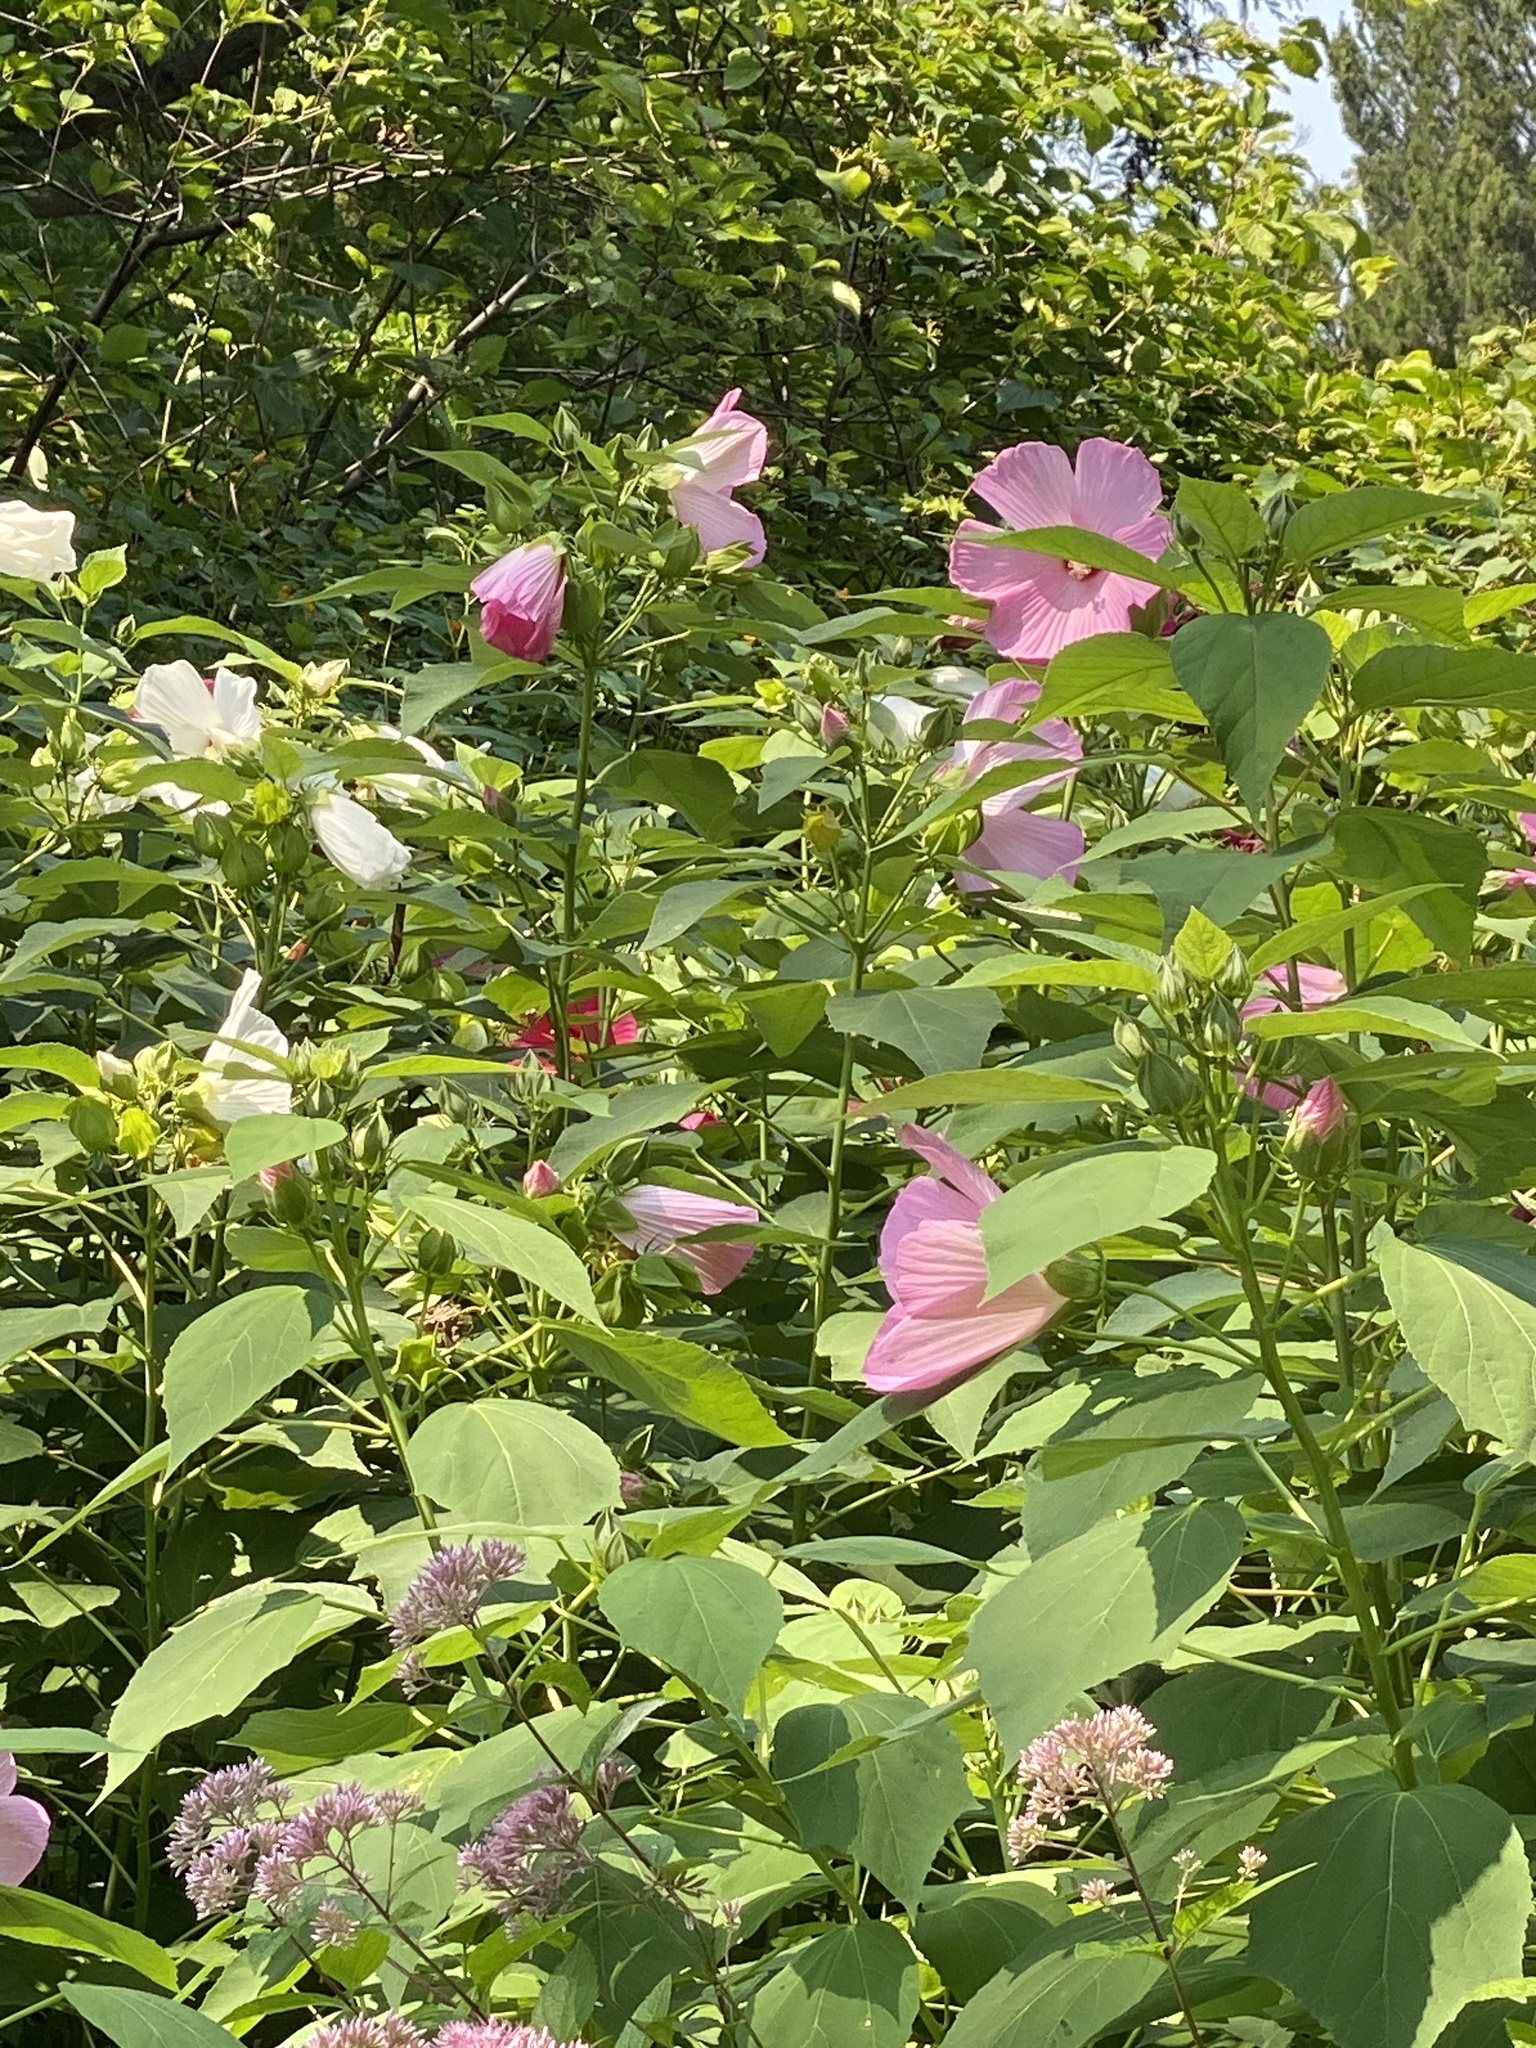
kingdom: Plantae
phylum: Tracheophyta
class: Magnoliopsida
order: Malvales
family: Malvaceae
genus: Hibiscus
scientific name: Hibiscus moscheutos
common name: Common rose-mallow
